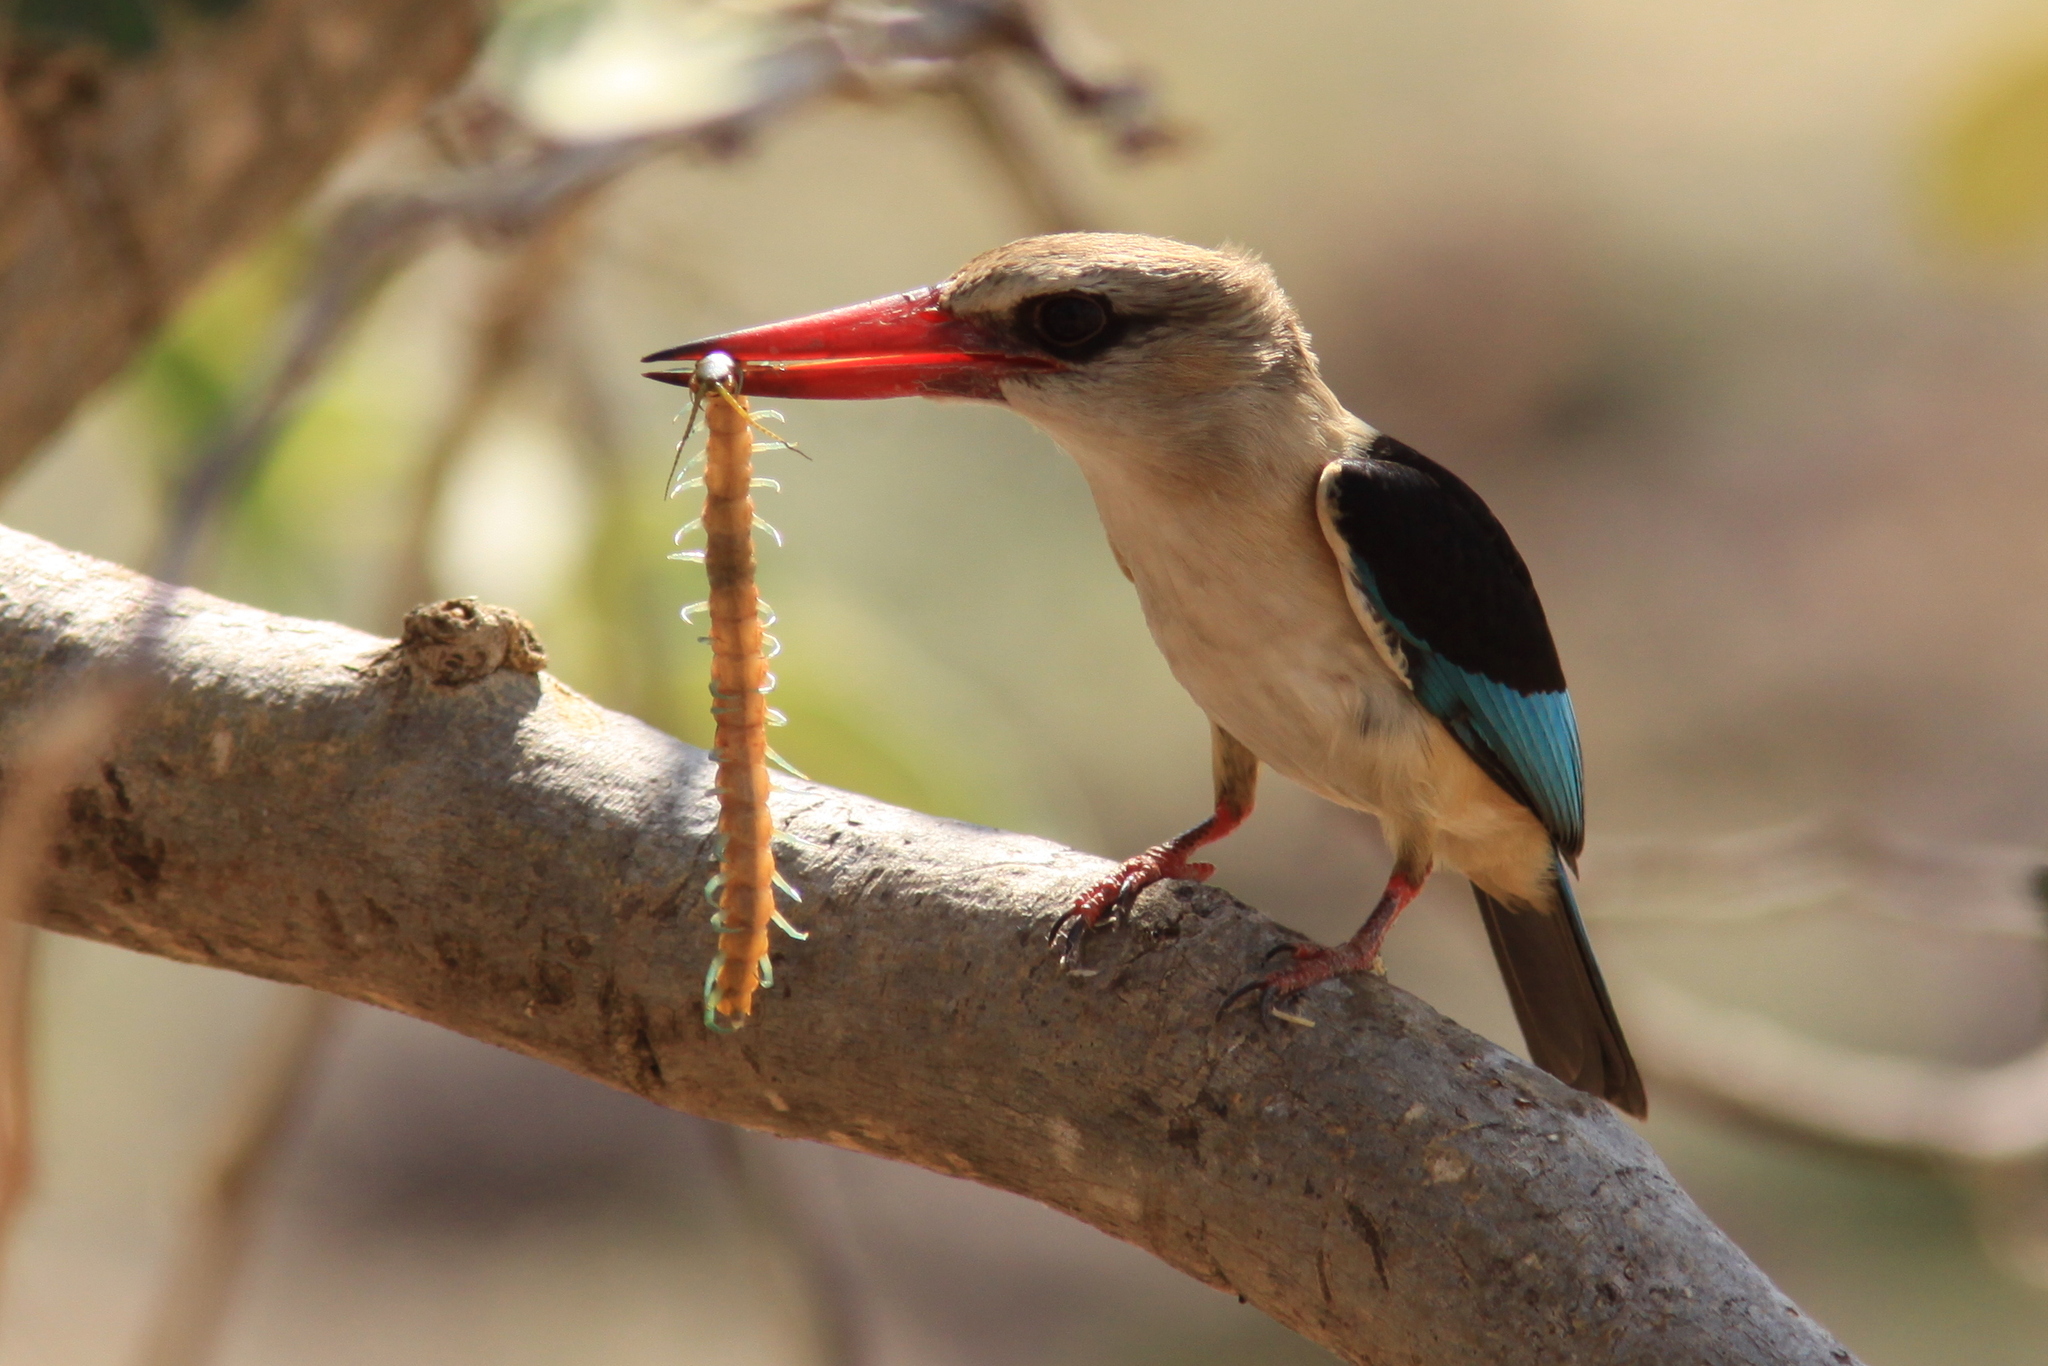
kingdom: Animalia
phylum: Chordata
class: Aves
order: Coraciiformes
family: Alcedinidae
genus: Halcyon
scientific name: Halcyon albiventris
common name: Brown-hooded kingfisher
